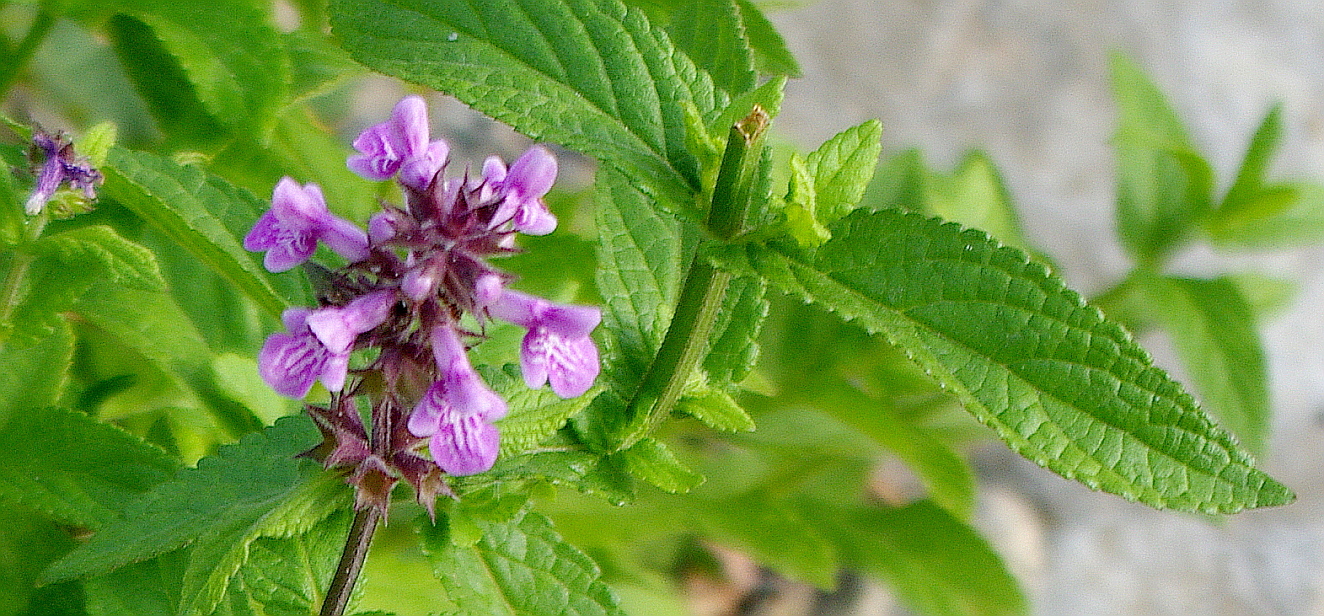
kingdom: Plantae
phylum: Tracheophyta
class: Magnoliopsida
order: Lamiales
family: Lamiaceae
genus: Stachys
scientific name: Stachys palustris
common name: Marsh woundwort
